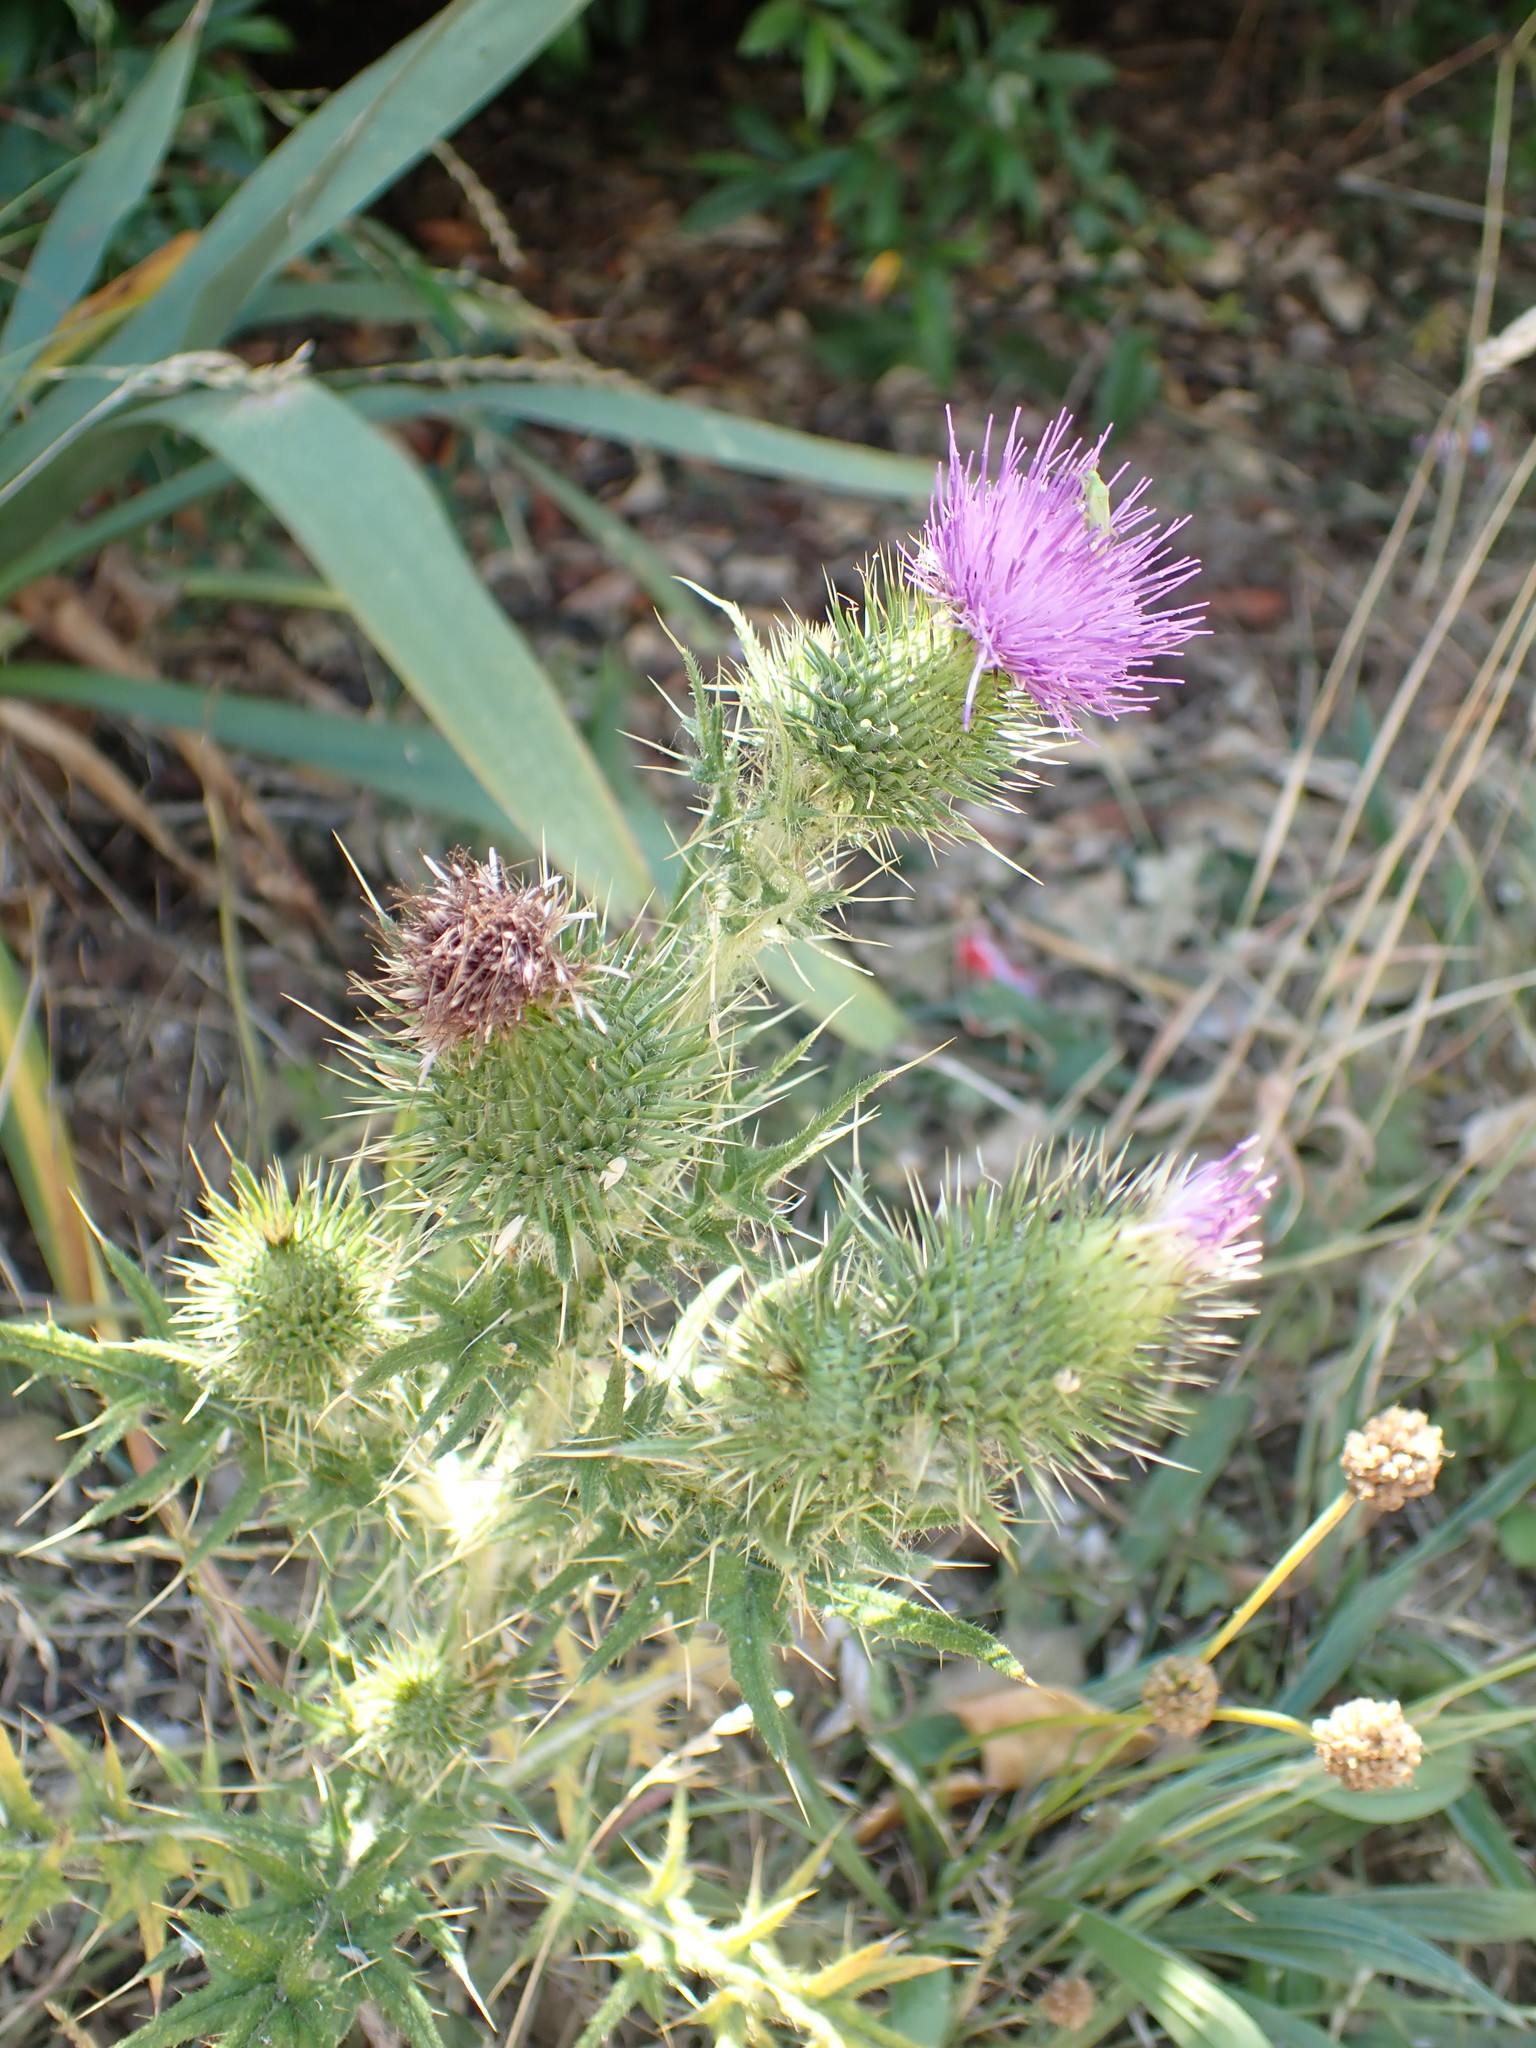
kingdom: Plantae
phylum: Tracheophyta
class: Magnoliopsida
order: Asterales
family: Asteraceae
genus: Cirsium
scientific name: Cirsium vulgare
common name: Bull thistle
